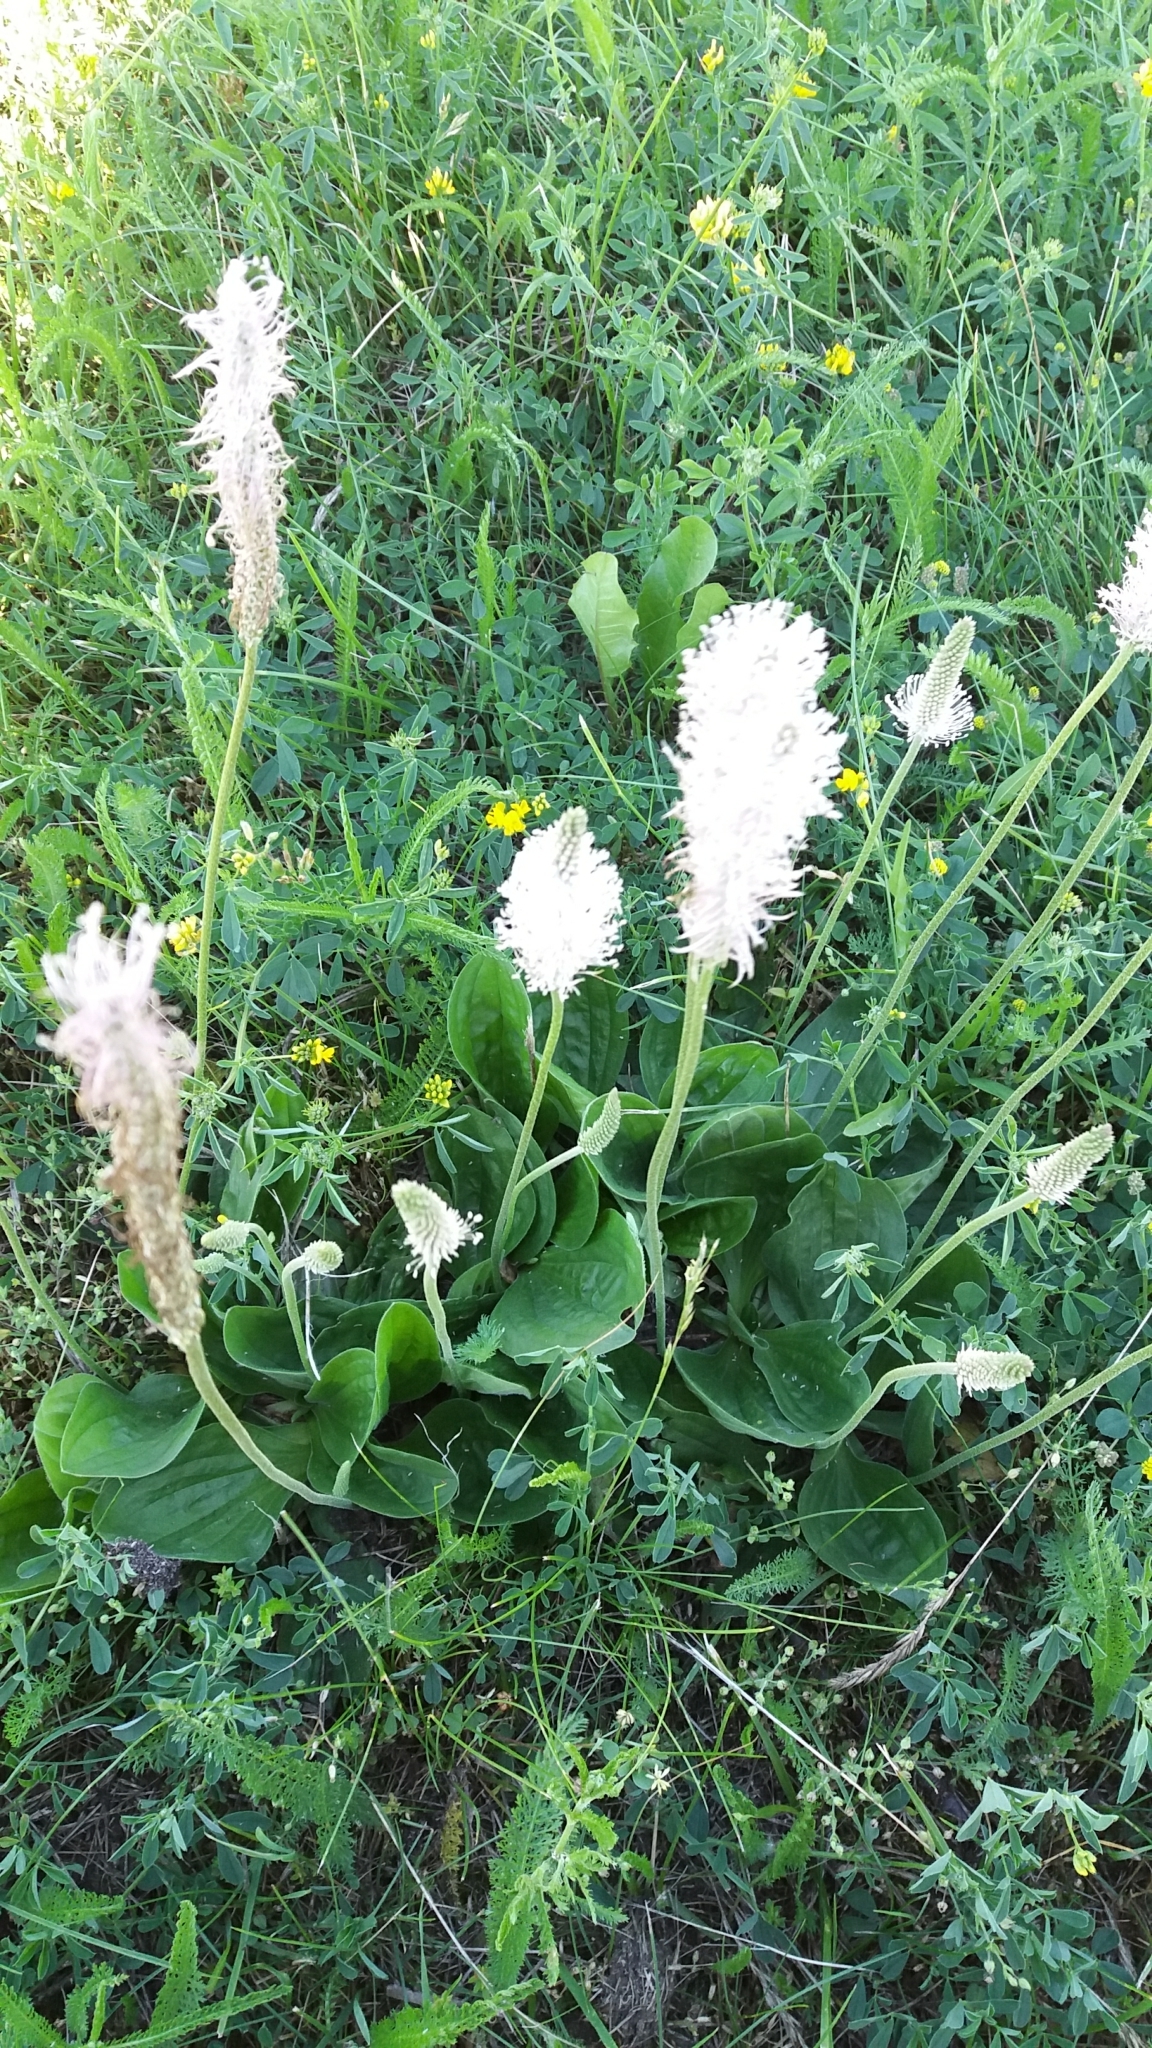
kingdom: Plantae
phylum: Tracheophyta
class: Magnoliopsida
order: Lamiales
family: Plantaginaceae
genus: Plantago
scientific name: Plantago media
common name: Hoary plantain
